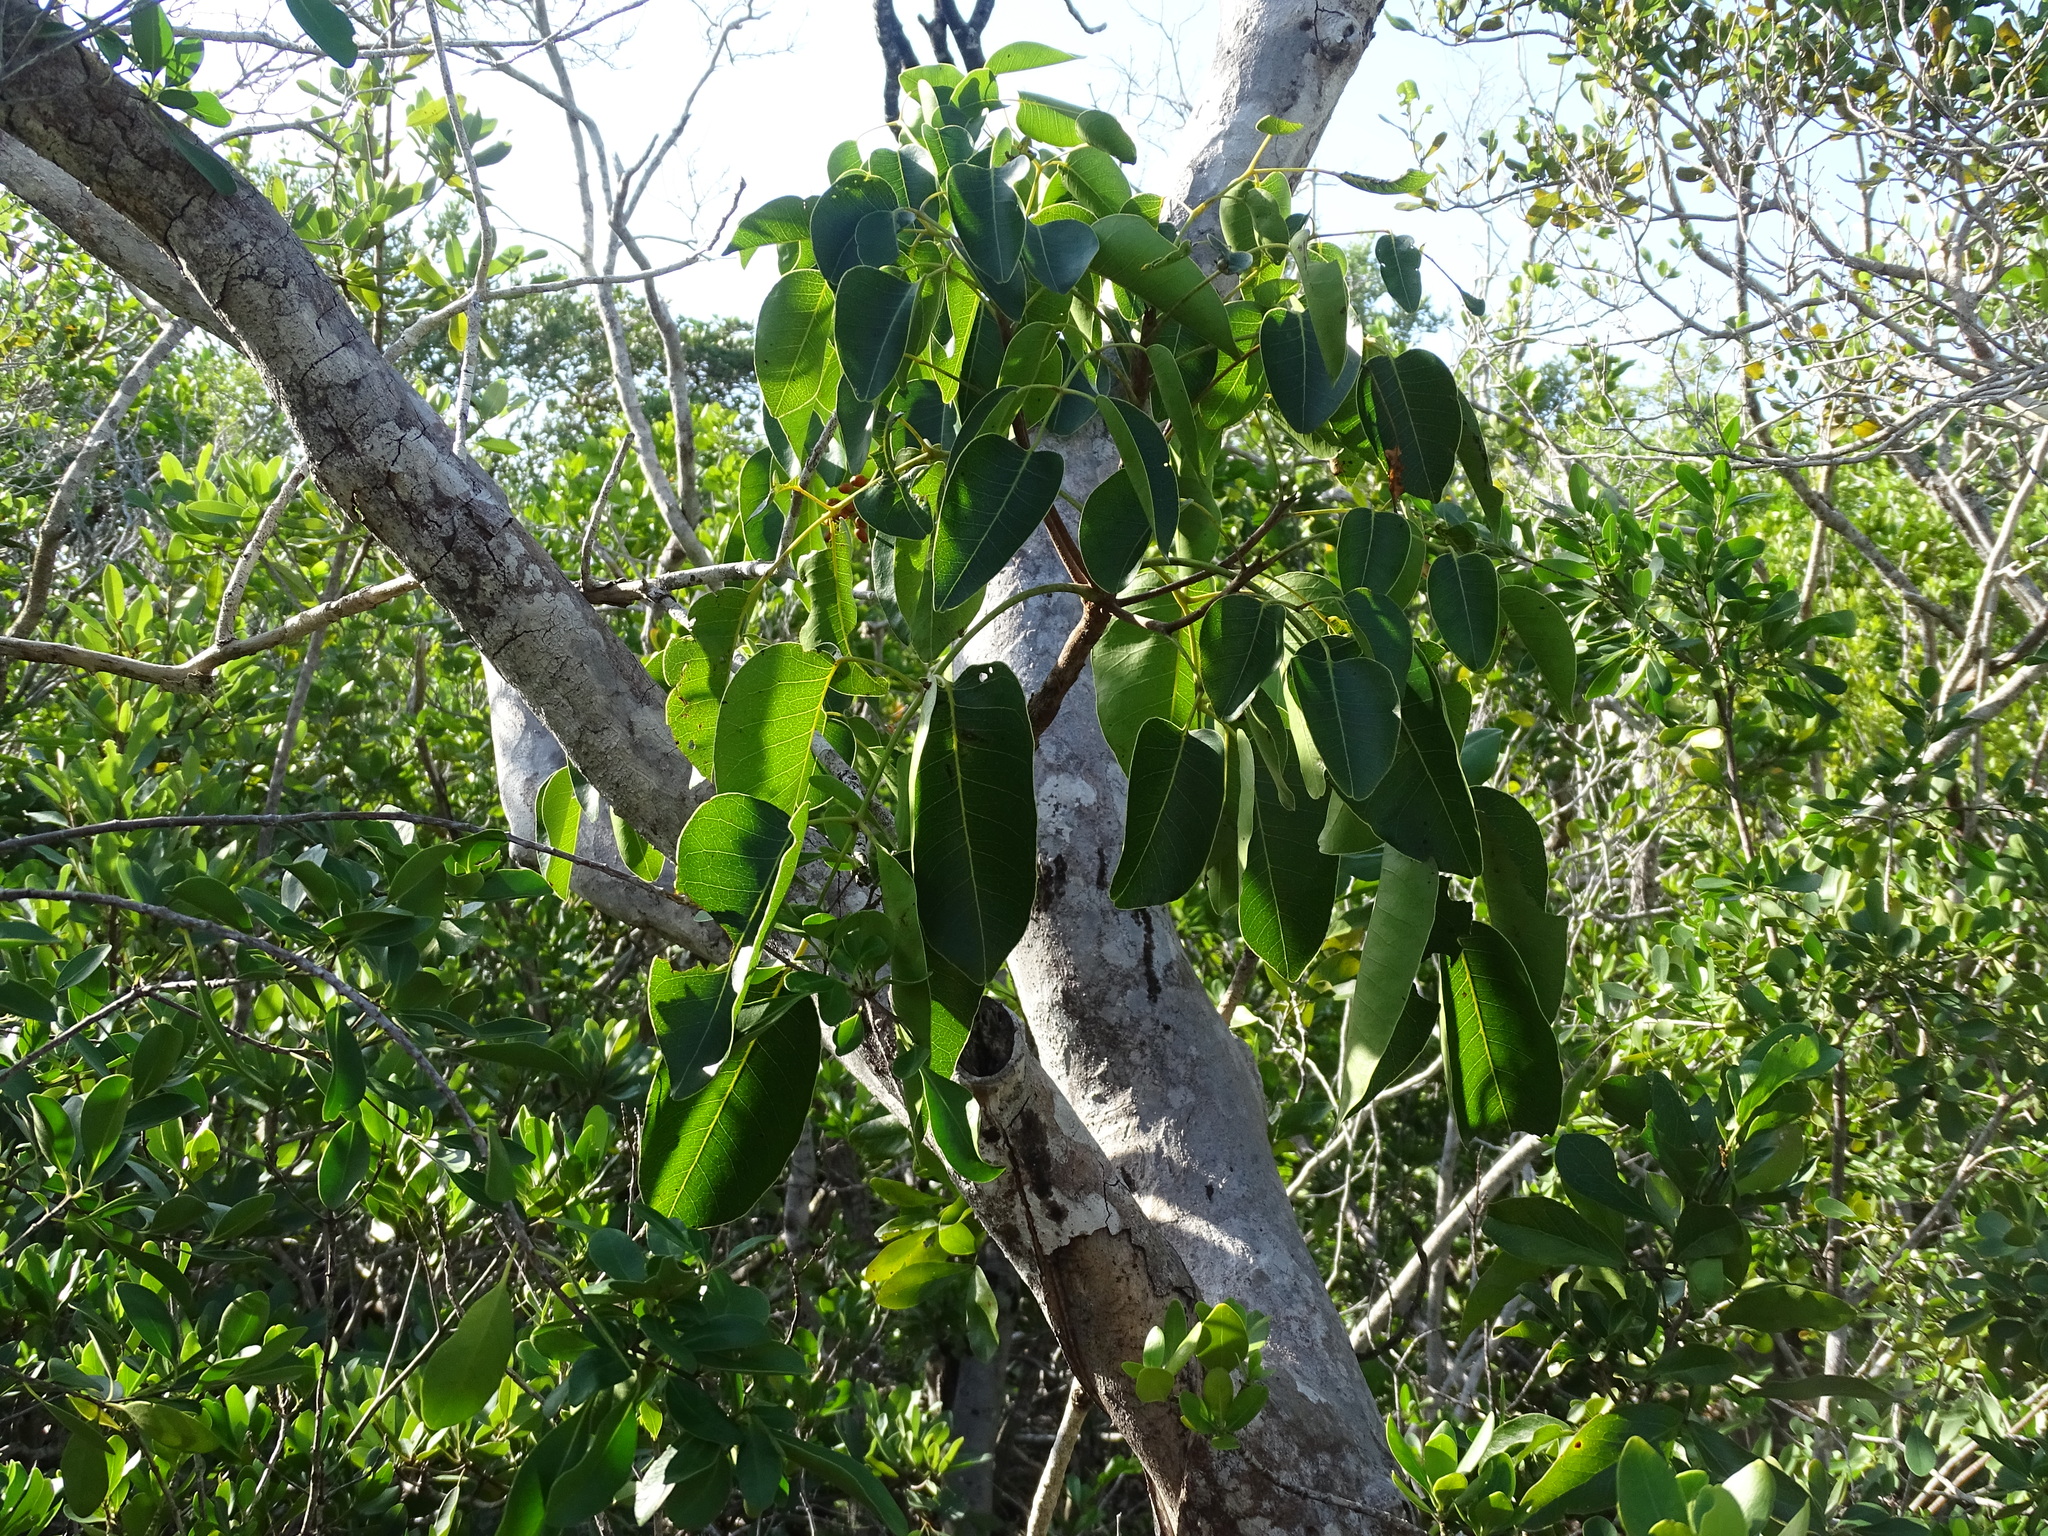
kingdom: Plantae
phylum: Tracheophyta
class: Magnoliopsida
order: Sapindales
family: Anacardiaceae
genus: Metopium
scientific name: Metopium toxiferum
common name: Florida poisontree
